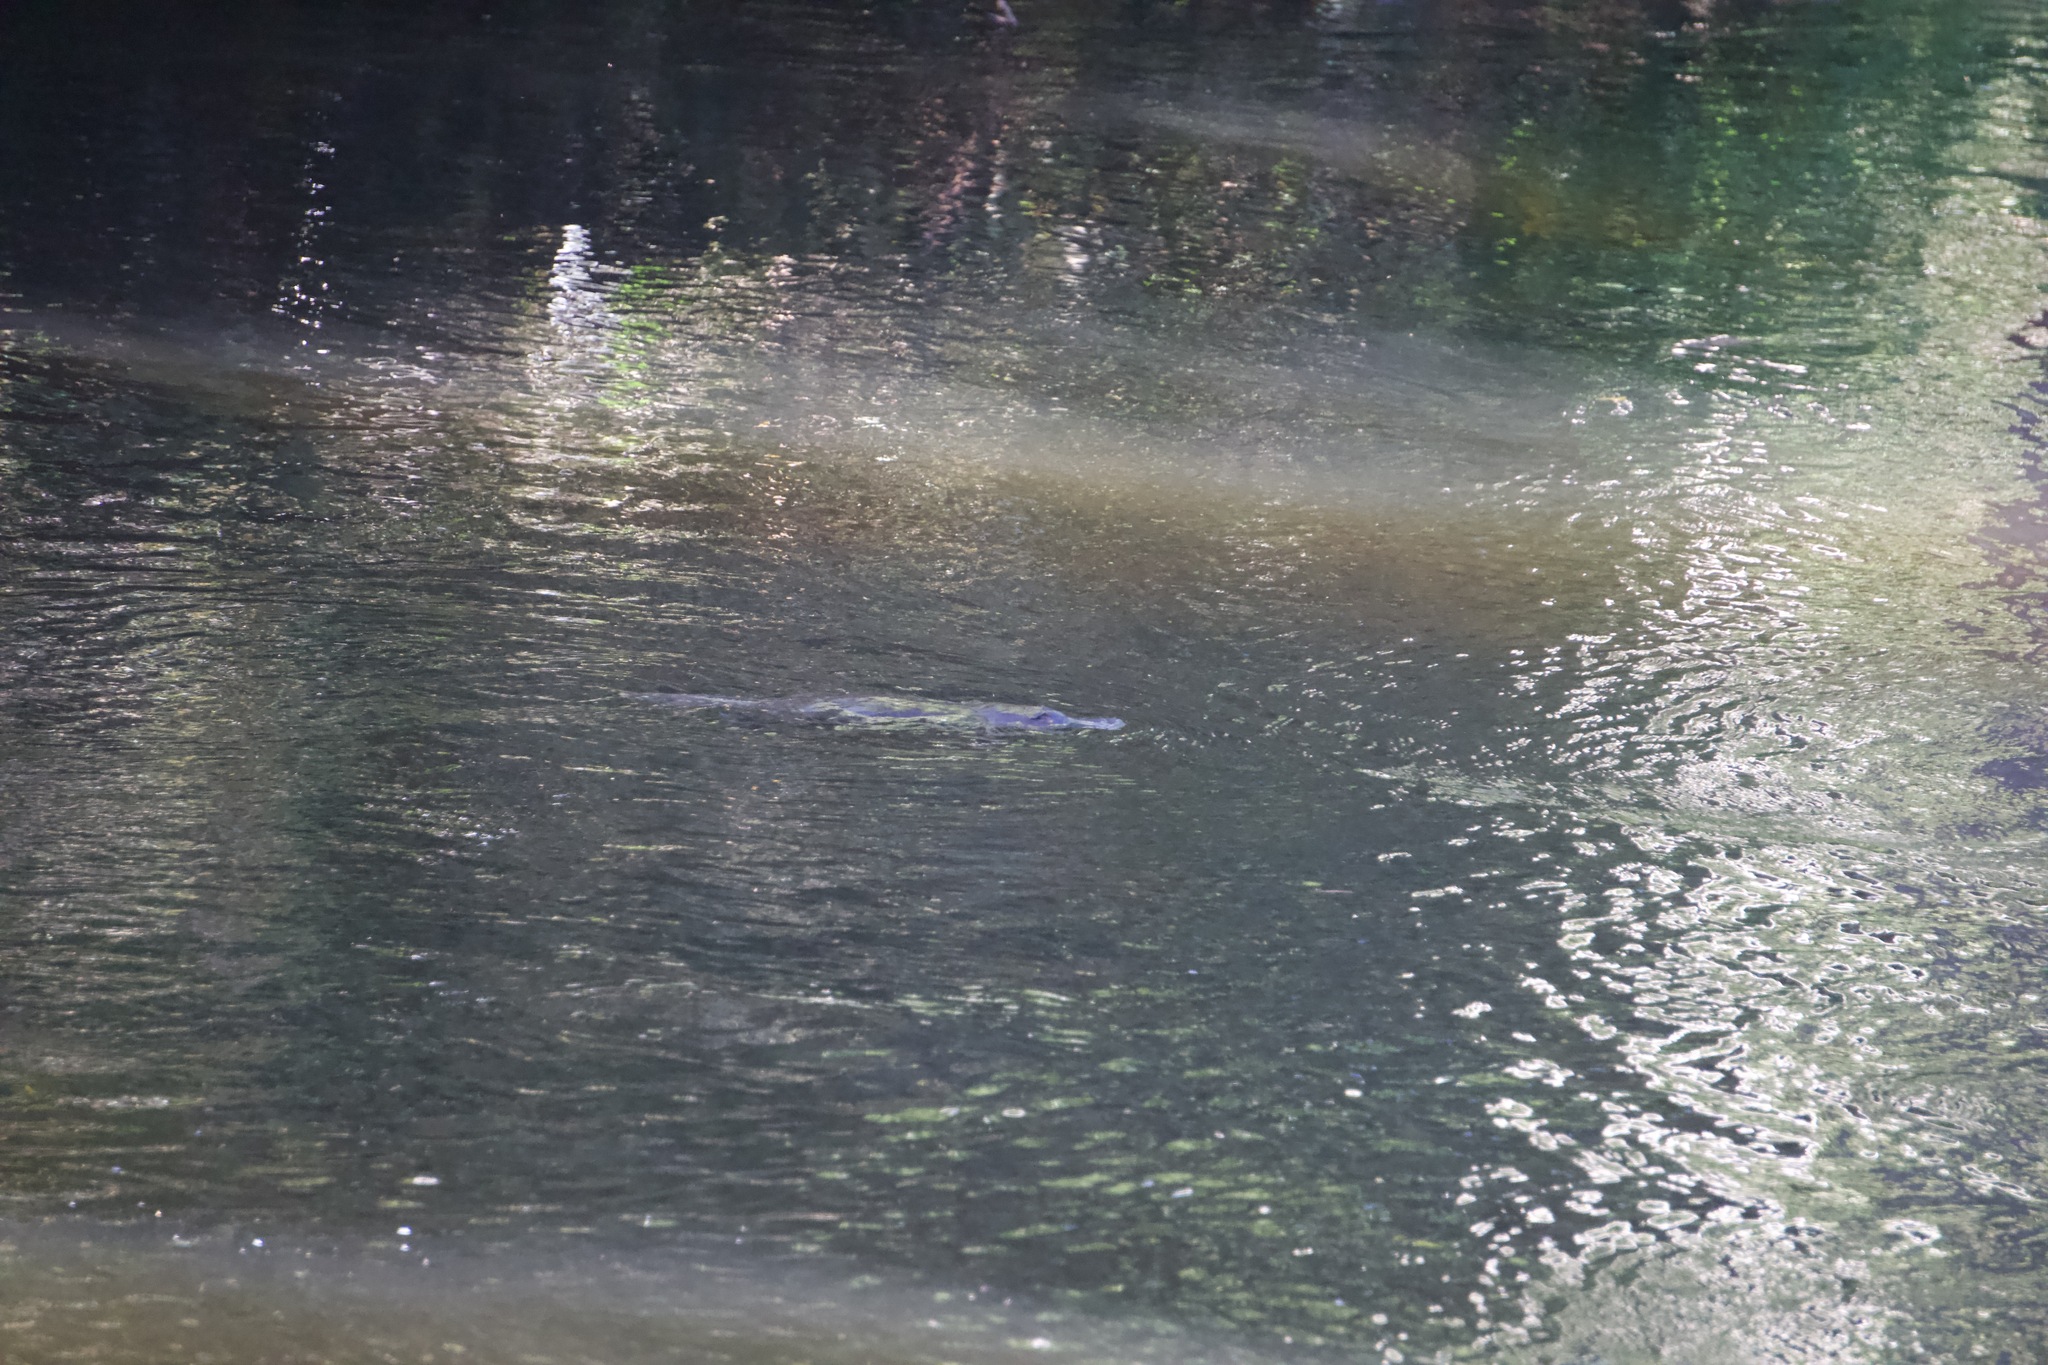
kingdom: Animalia
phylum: Chordata
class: Mammalia
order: Monotremata
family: Ornithorhynchidae
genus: Ornithorhynchus
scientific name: Ornithorhynchus anatinus
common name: Platypus
